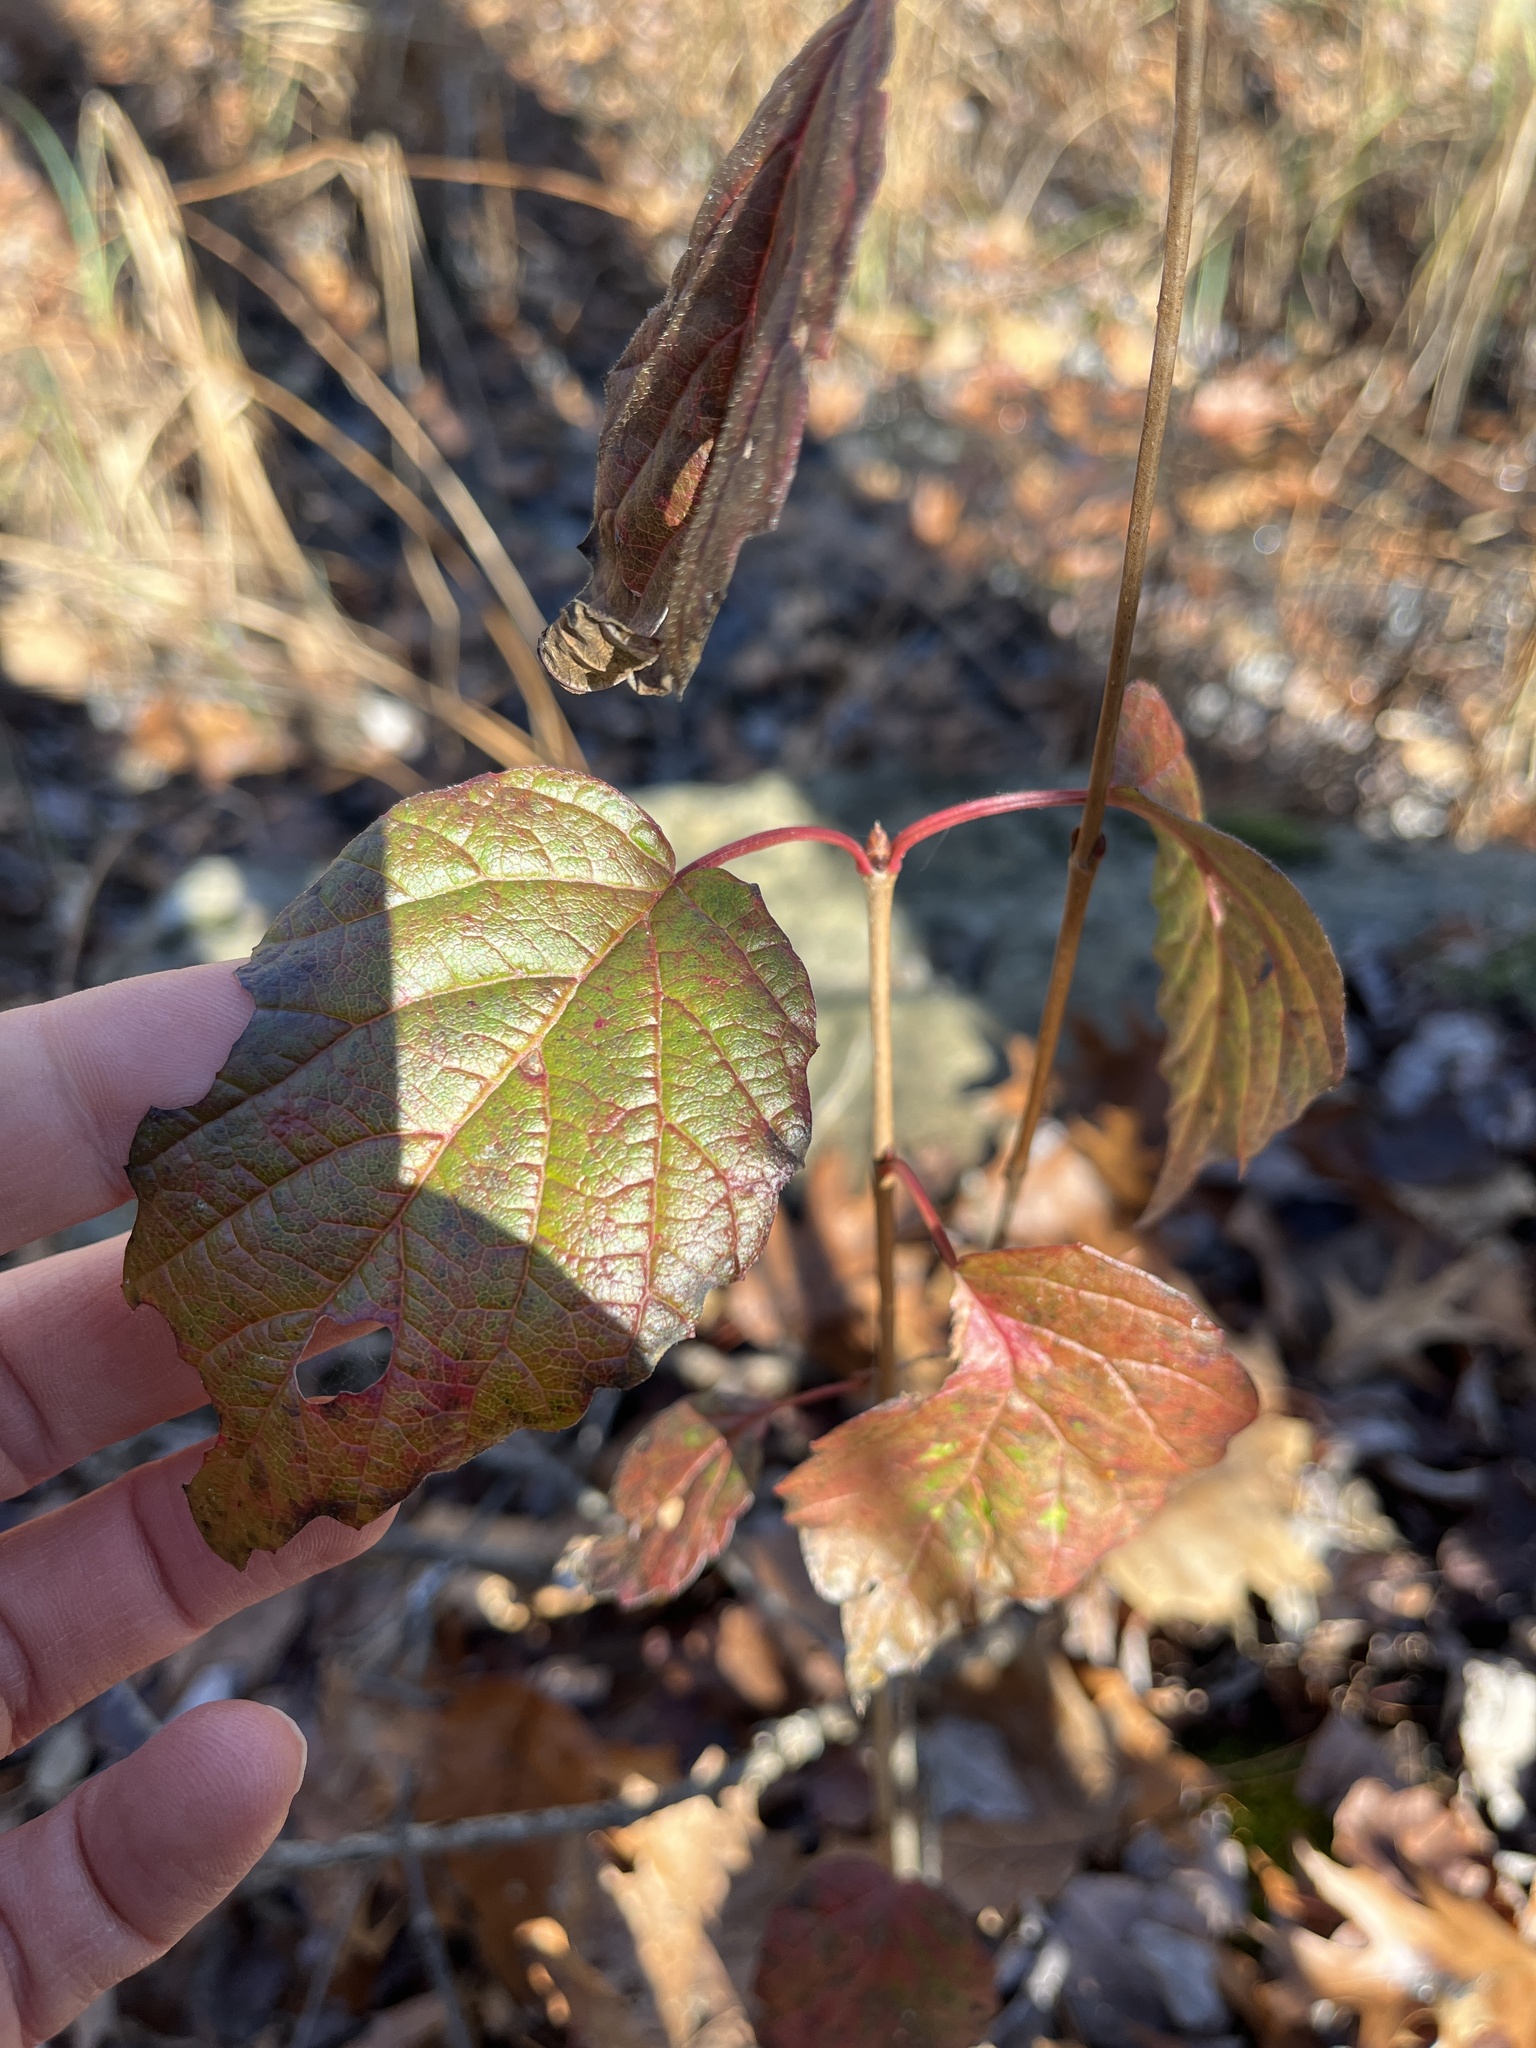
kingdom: Plantae
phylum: Tracheophyta
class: Magnoliopsida
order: Dipsacales
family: Viburnaceae
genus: Viburnum
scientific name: Viburnum dentatum
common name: Arrow-wood
